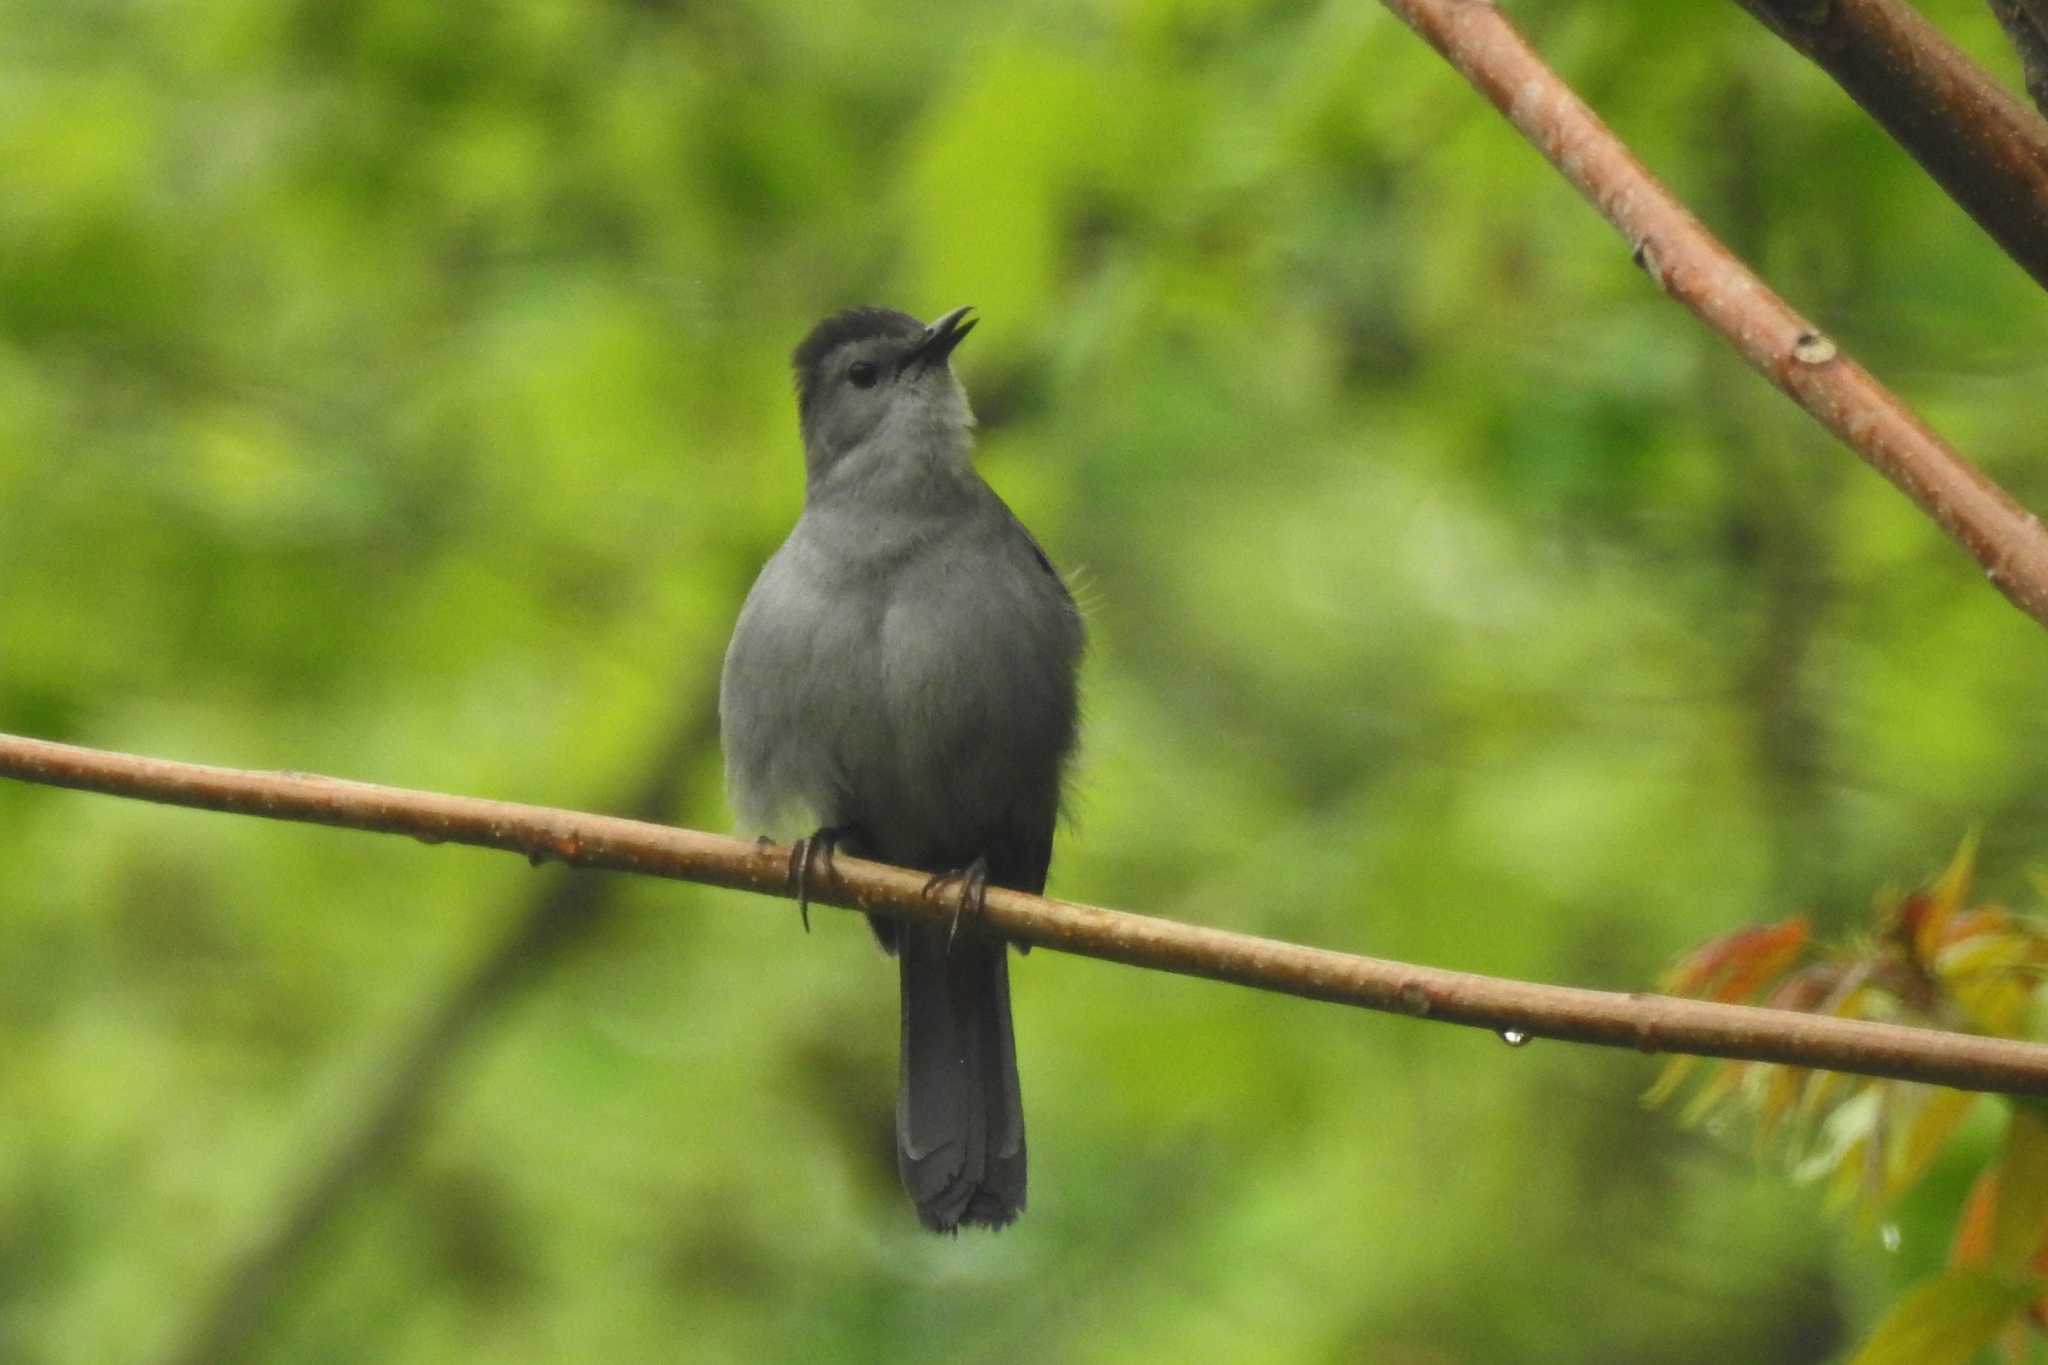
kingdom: Animalia
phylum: Chordata
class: Aves
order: Passeriformes
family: Mimidae
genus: Dumetella
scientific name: Dumetella carolinensis
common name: Gray catbird
